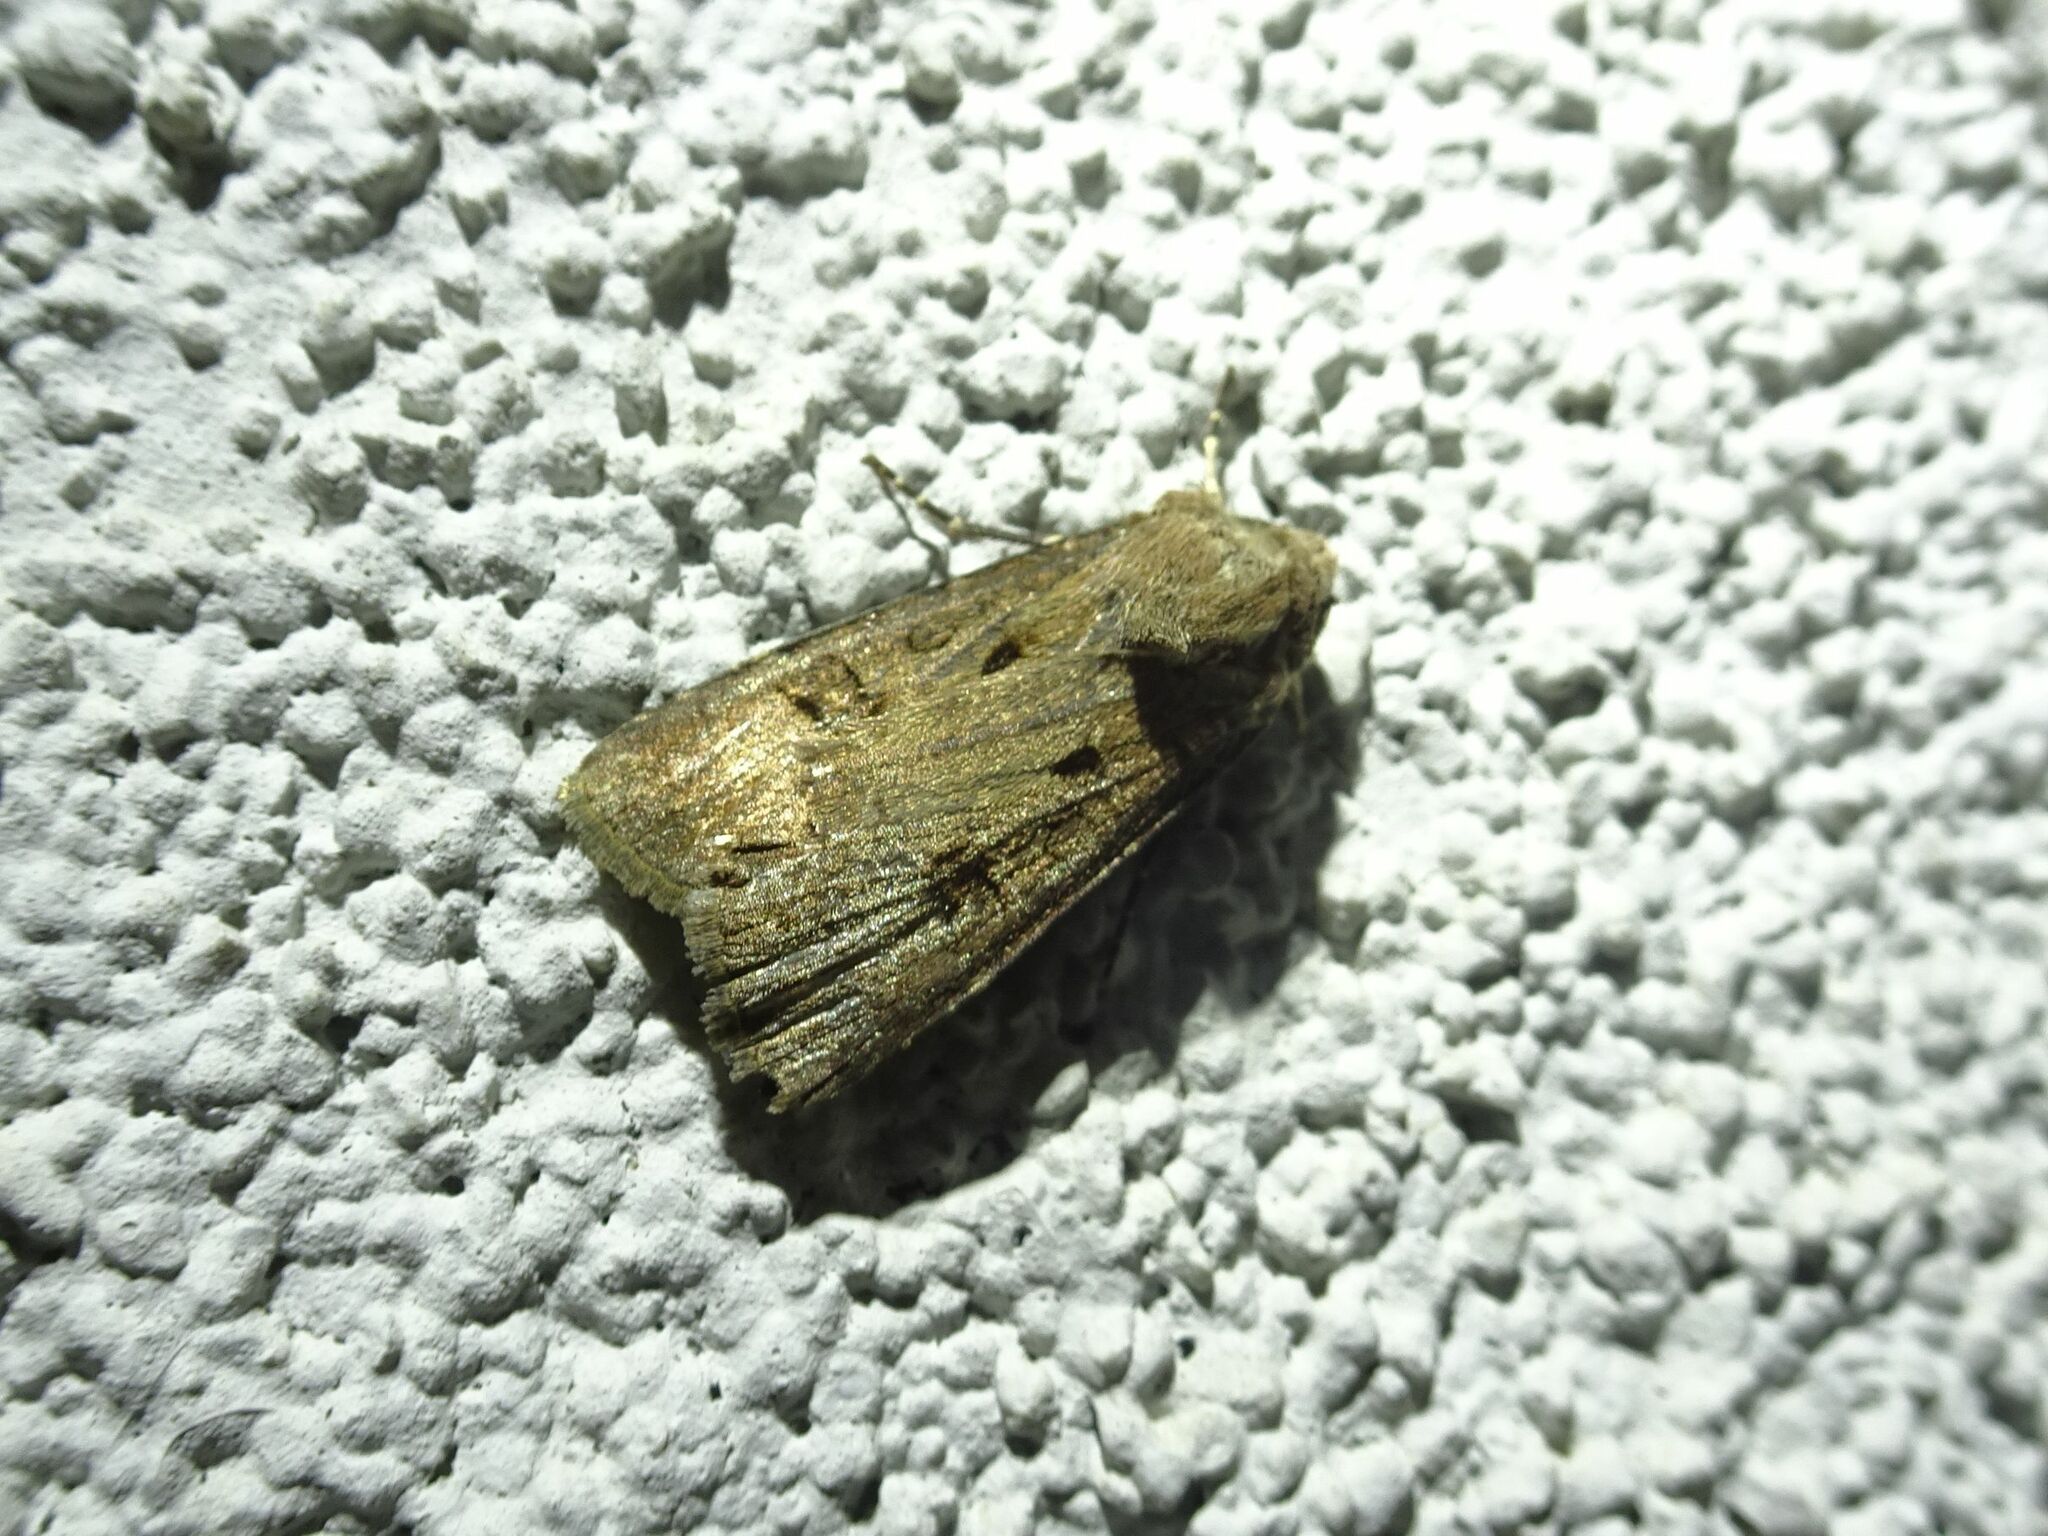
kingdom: Animalia
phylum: Arthropoda
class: Insecta
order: Lepidoptera
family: Noctuidae
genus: Agrotis
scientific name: Agrotis exclamationis
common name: Heart and dart
